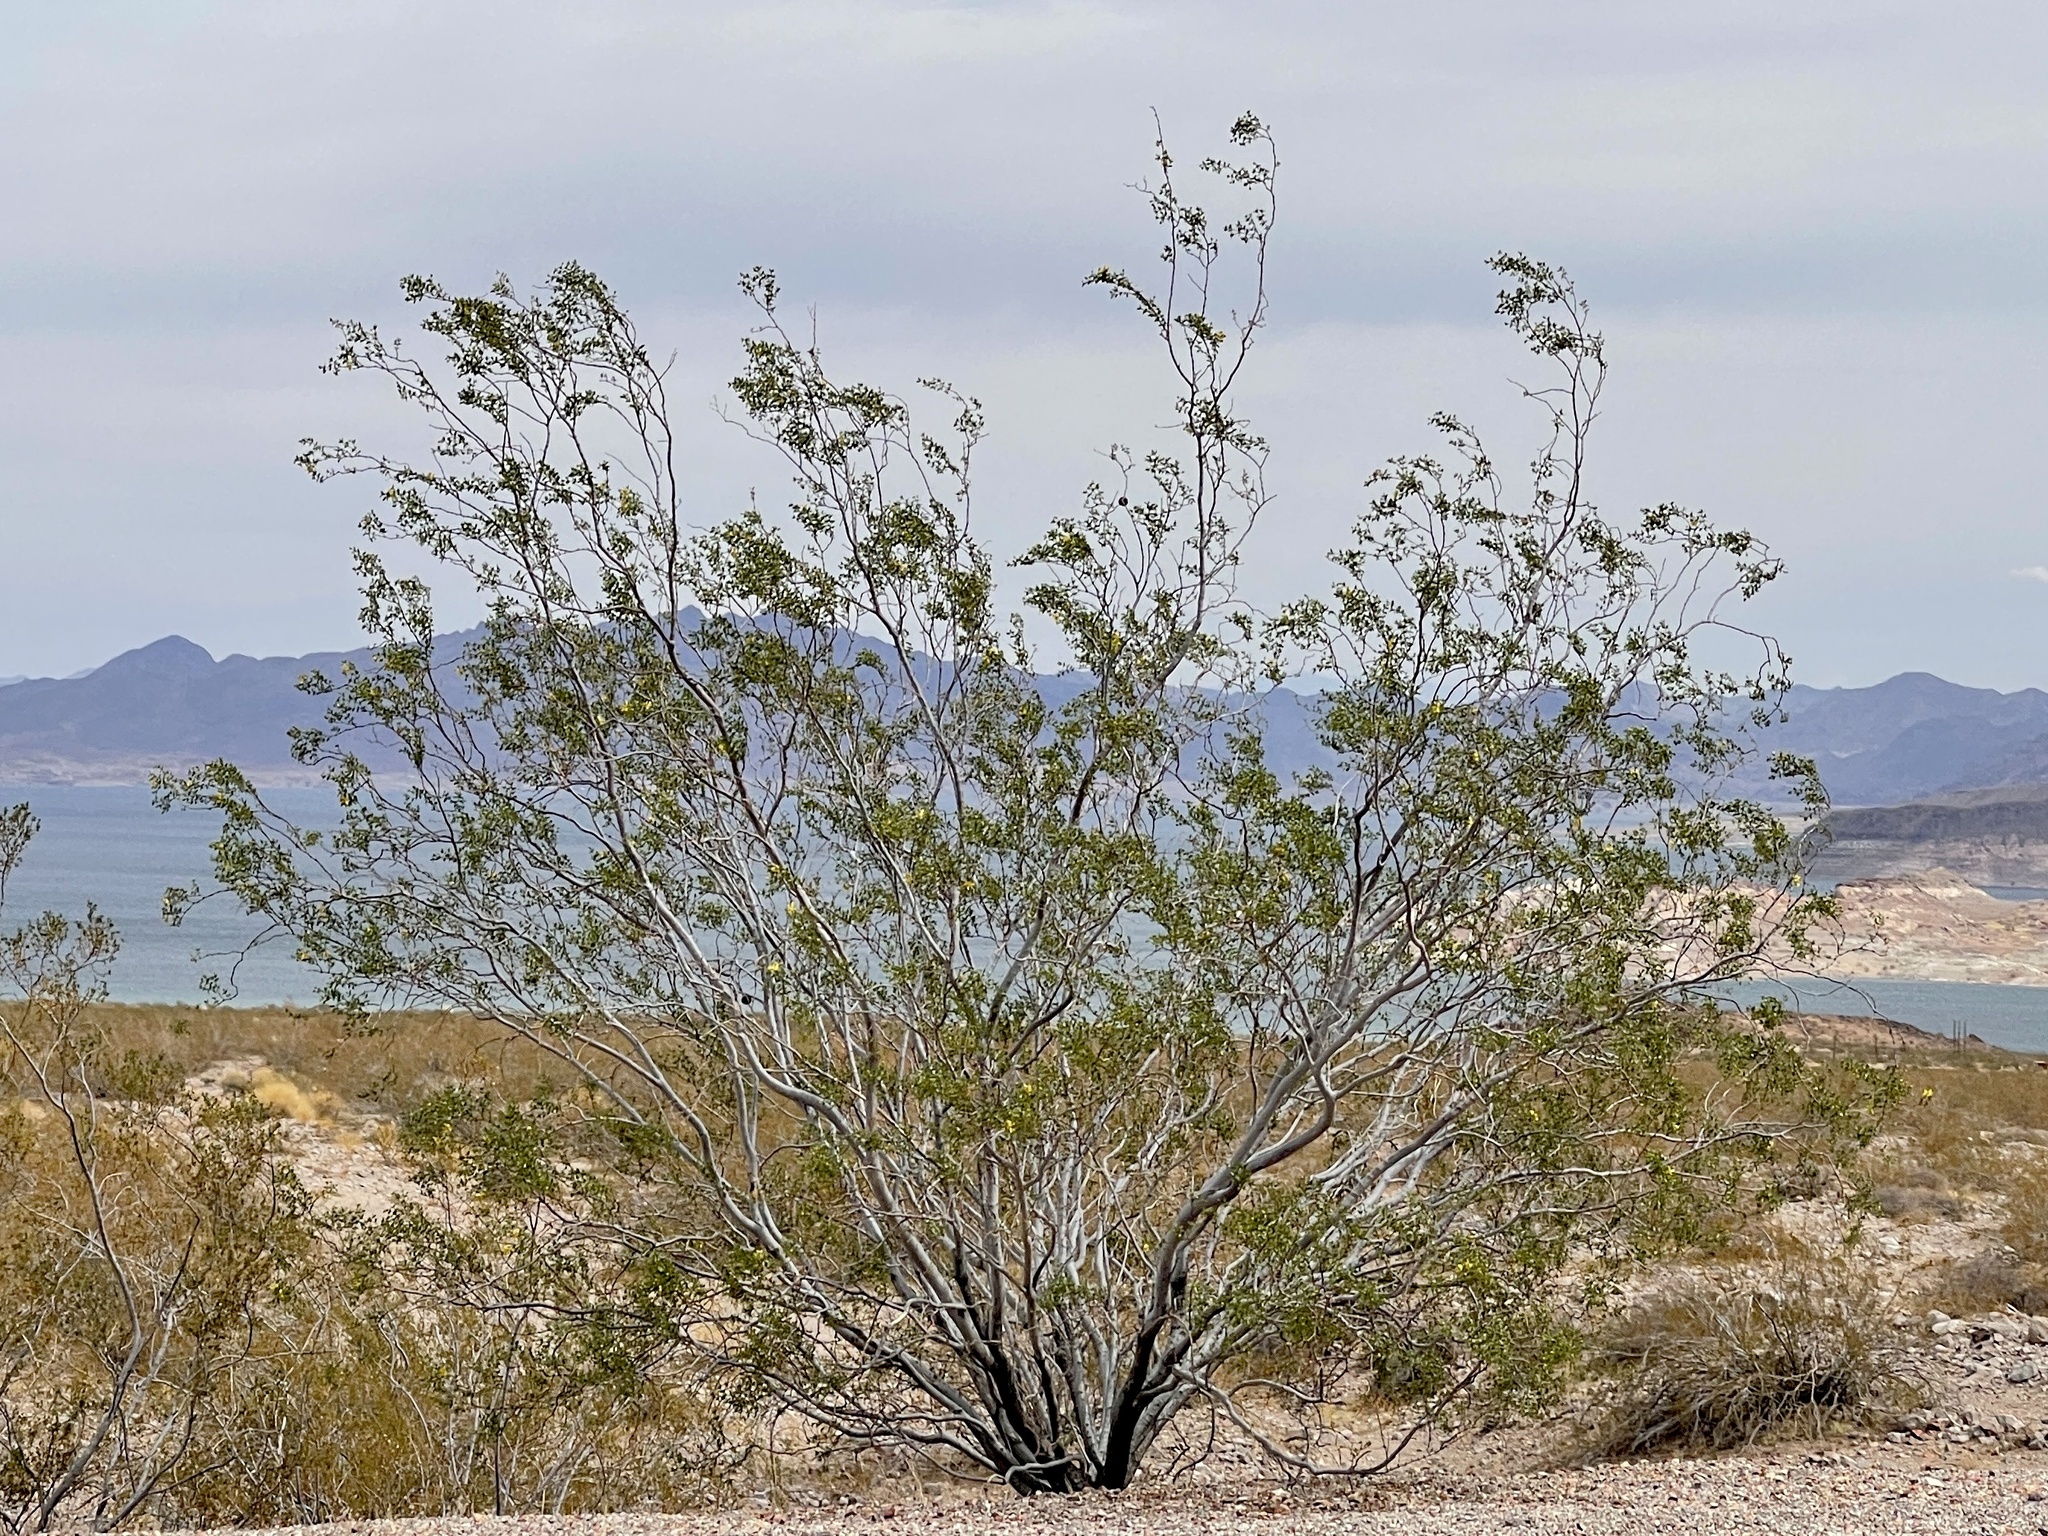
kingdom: Plantae
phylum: Tracheophyta
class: Magnoliopsida
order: Zygophyllales
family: Zygophyllaceae
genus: Larrea
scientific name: Larrea tridentata
